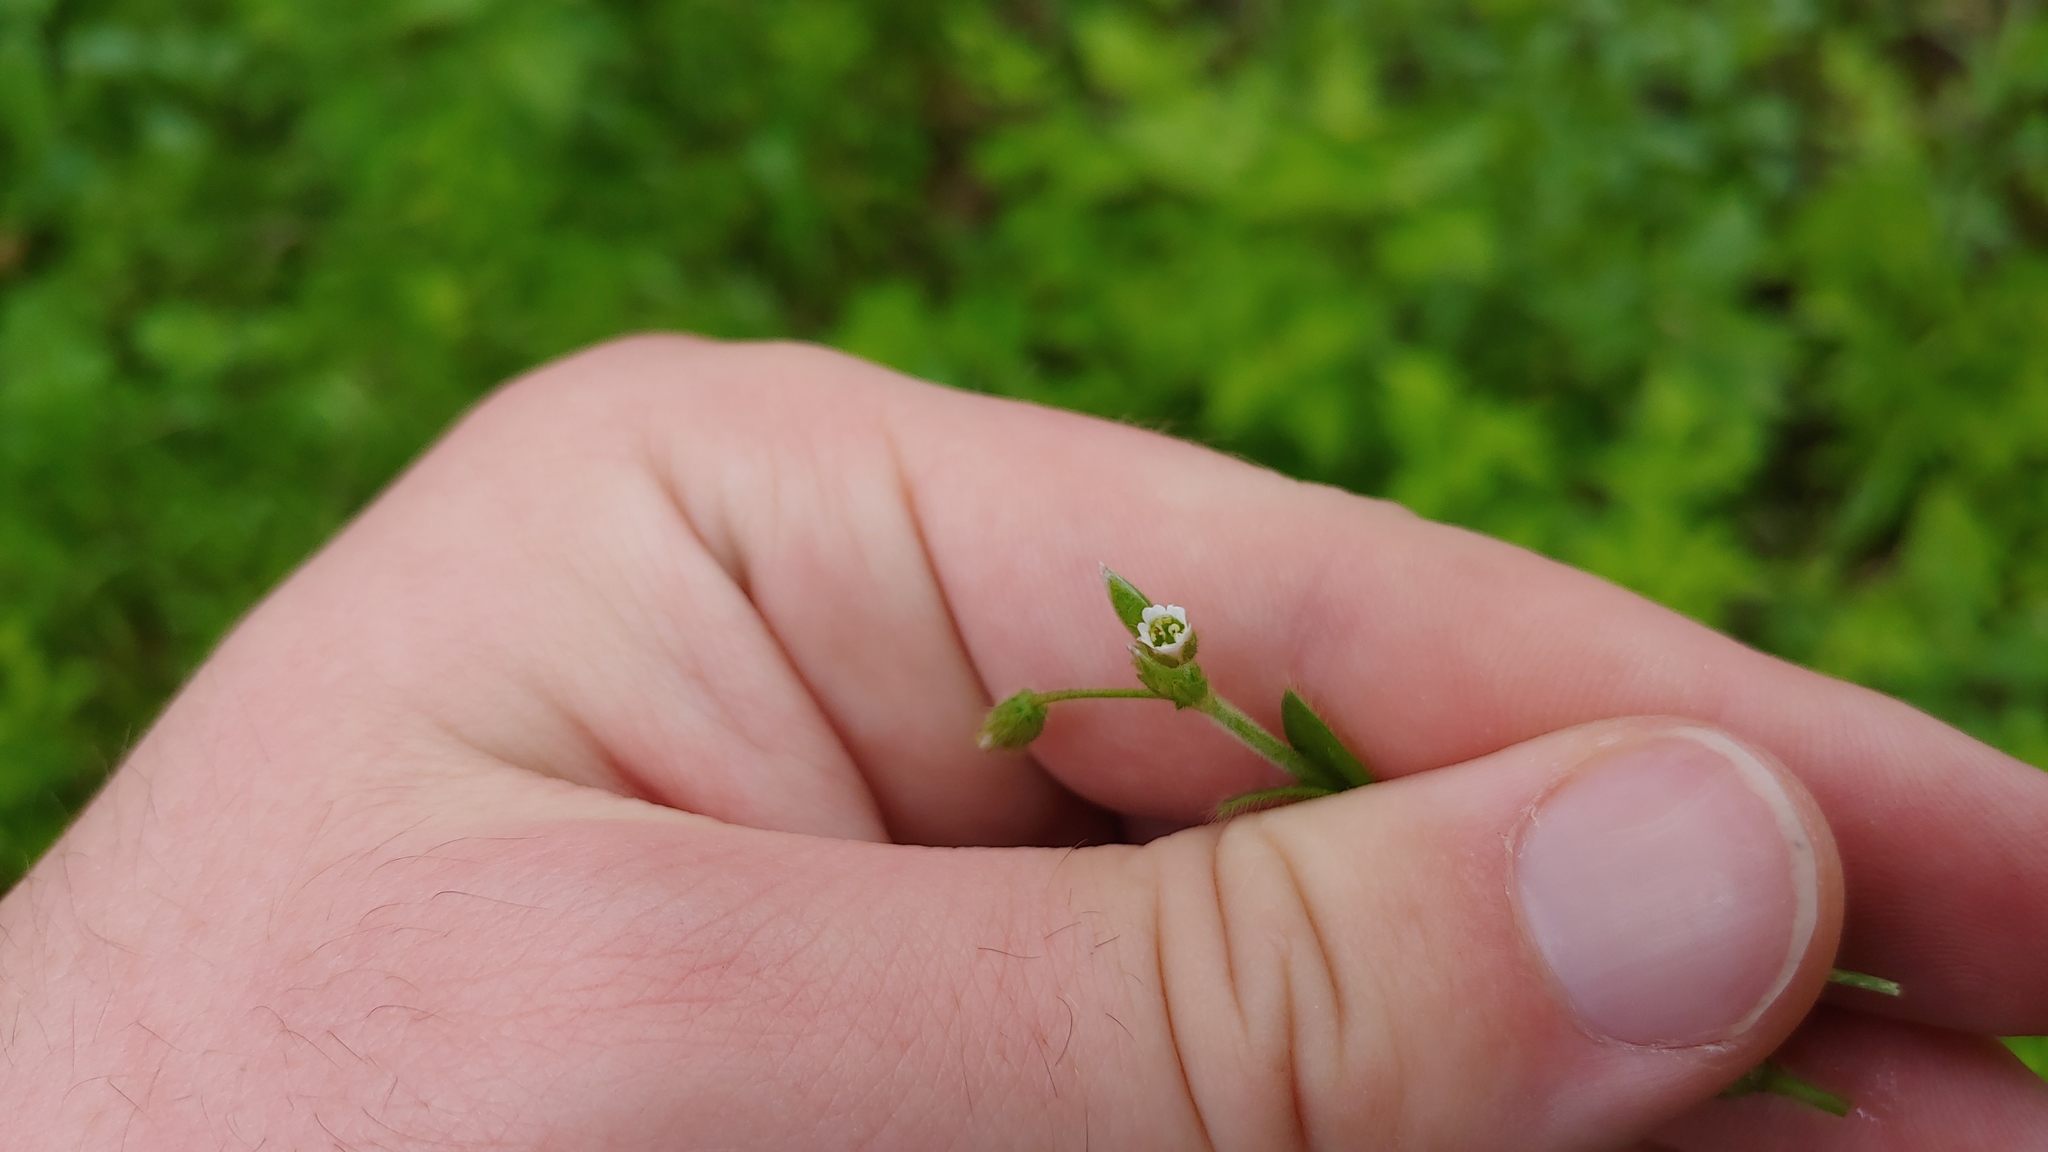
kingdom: Plantae
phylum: Tracheophyta
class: Magnoliopsida
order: Caryophyllales
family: Caryophyllaceae
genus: Cerastium
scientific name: Cerastium fontanum
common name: Common mouse-ear
